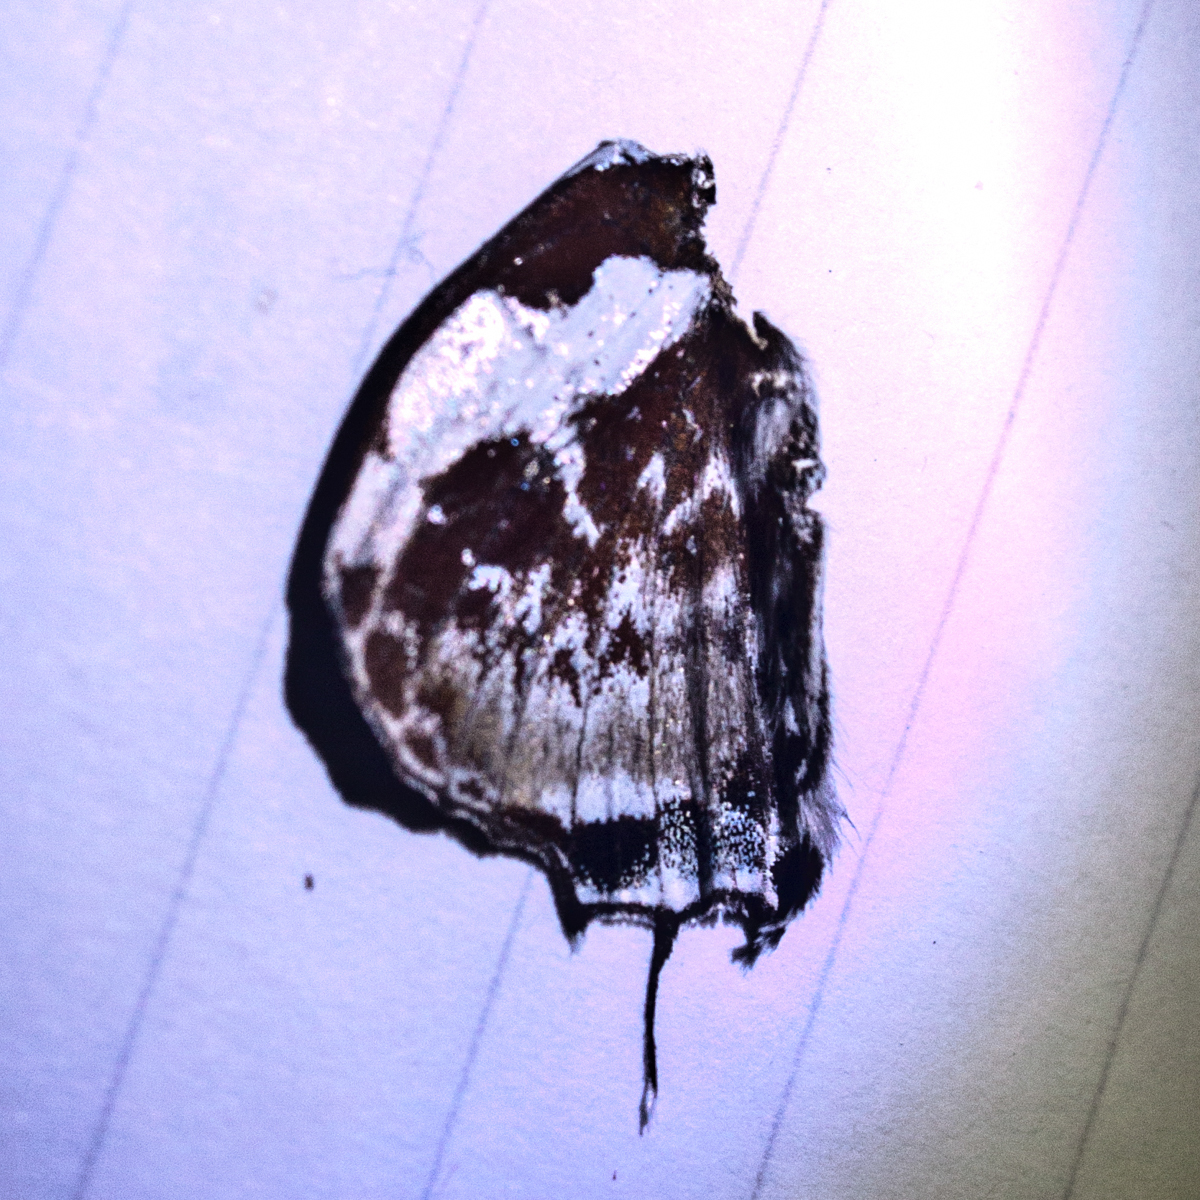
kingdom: Animalia
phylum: Arthropoda
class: Insecta
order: Lepidoptera
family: Lycaenidae
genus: Iraota
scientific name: Iraota rochana
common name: Scarce silverstreak blue
